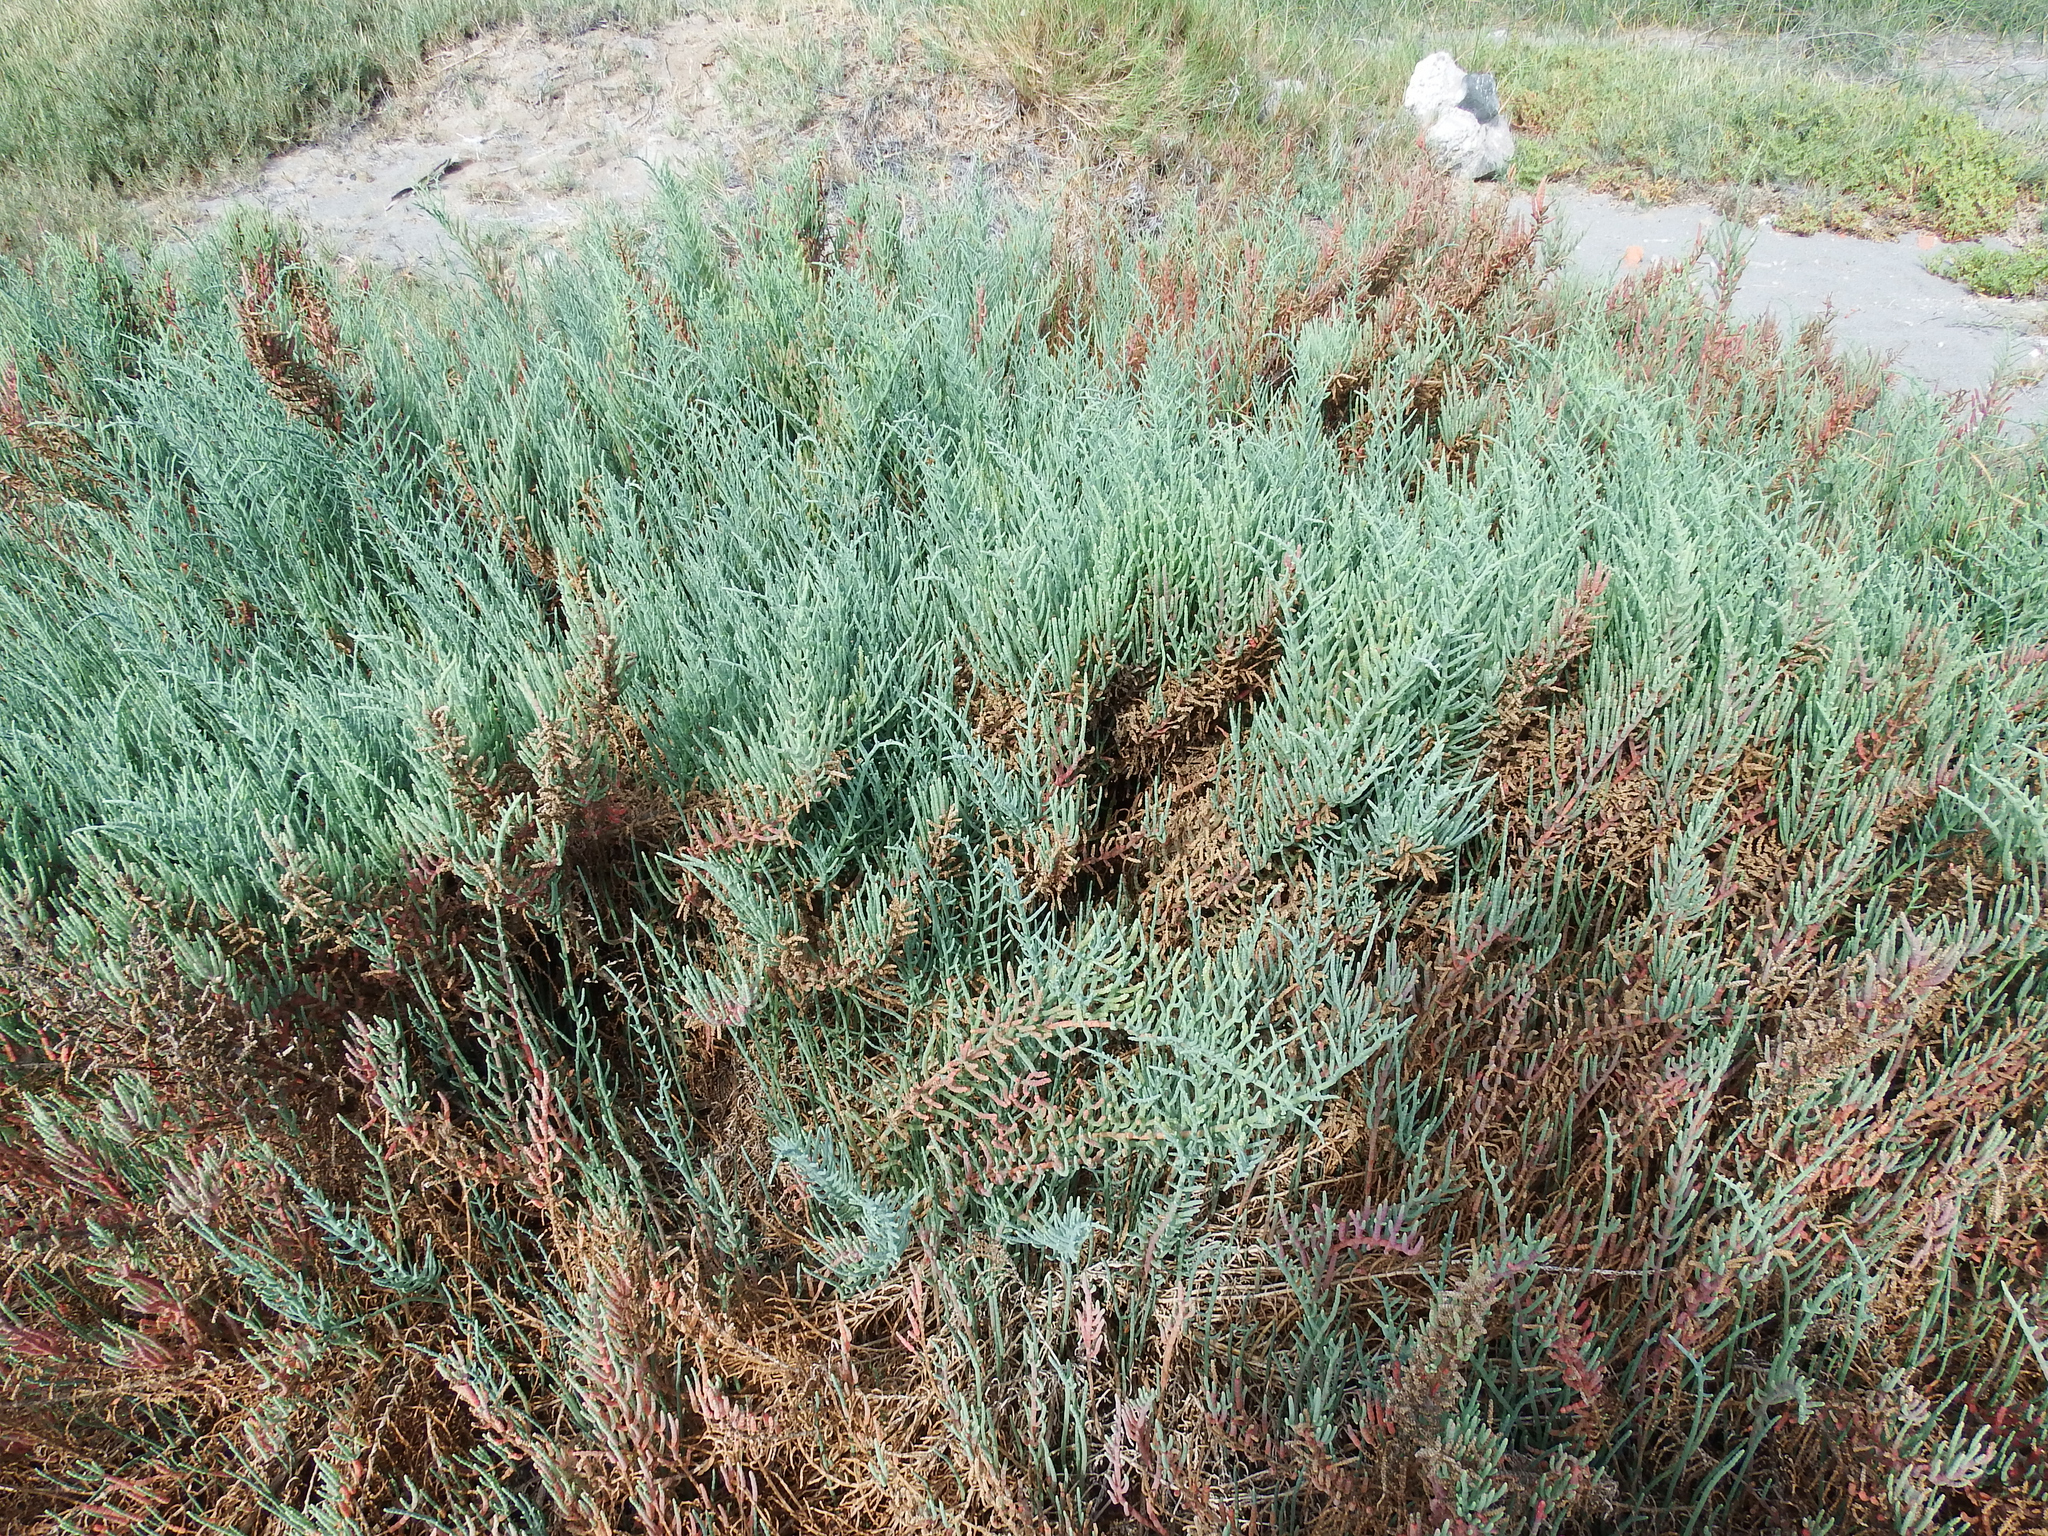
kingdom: Plantae
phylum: Tracheophyta
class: Magnoliopsida
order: Caryophyllales
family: Amaranthaceae
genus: Salicornia
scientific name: Salicornia neei
